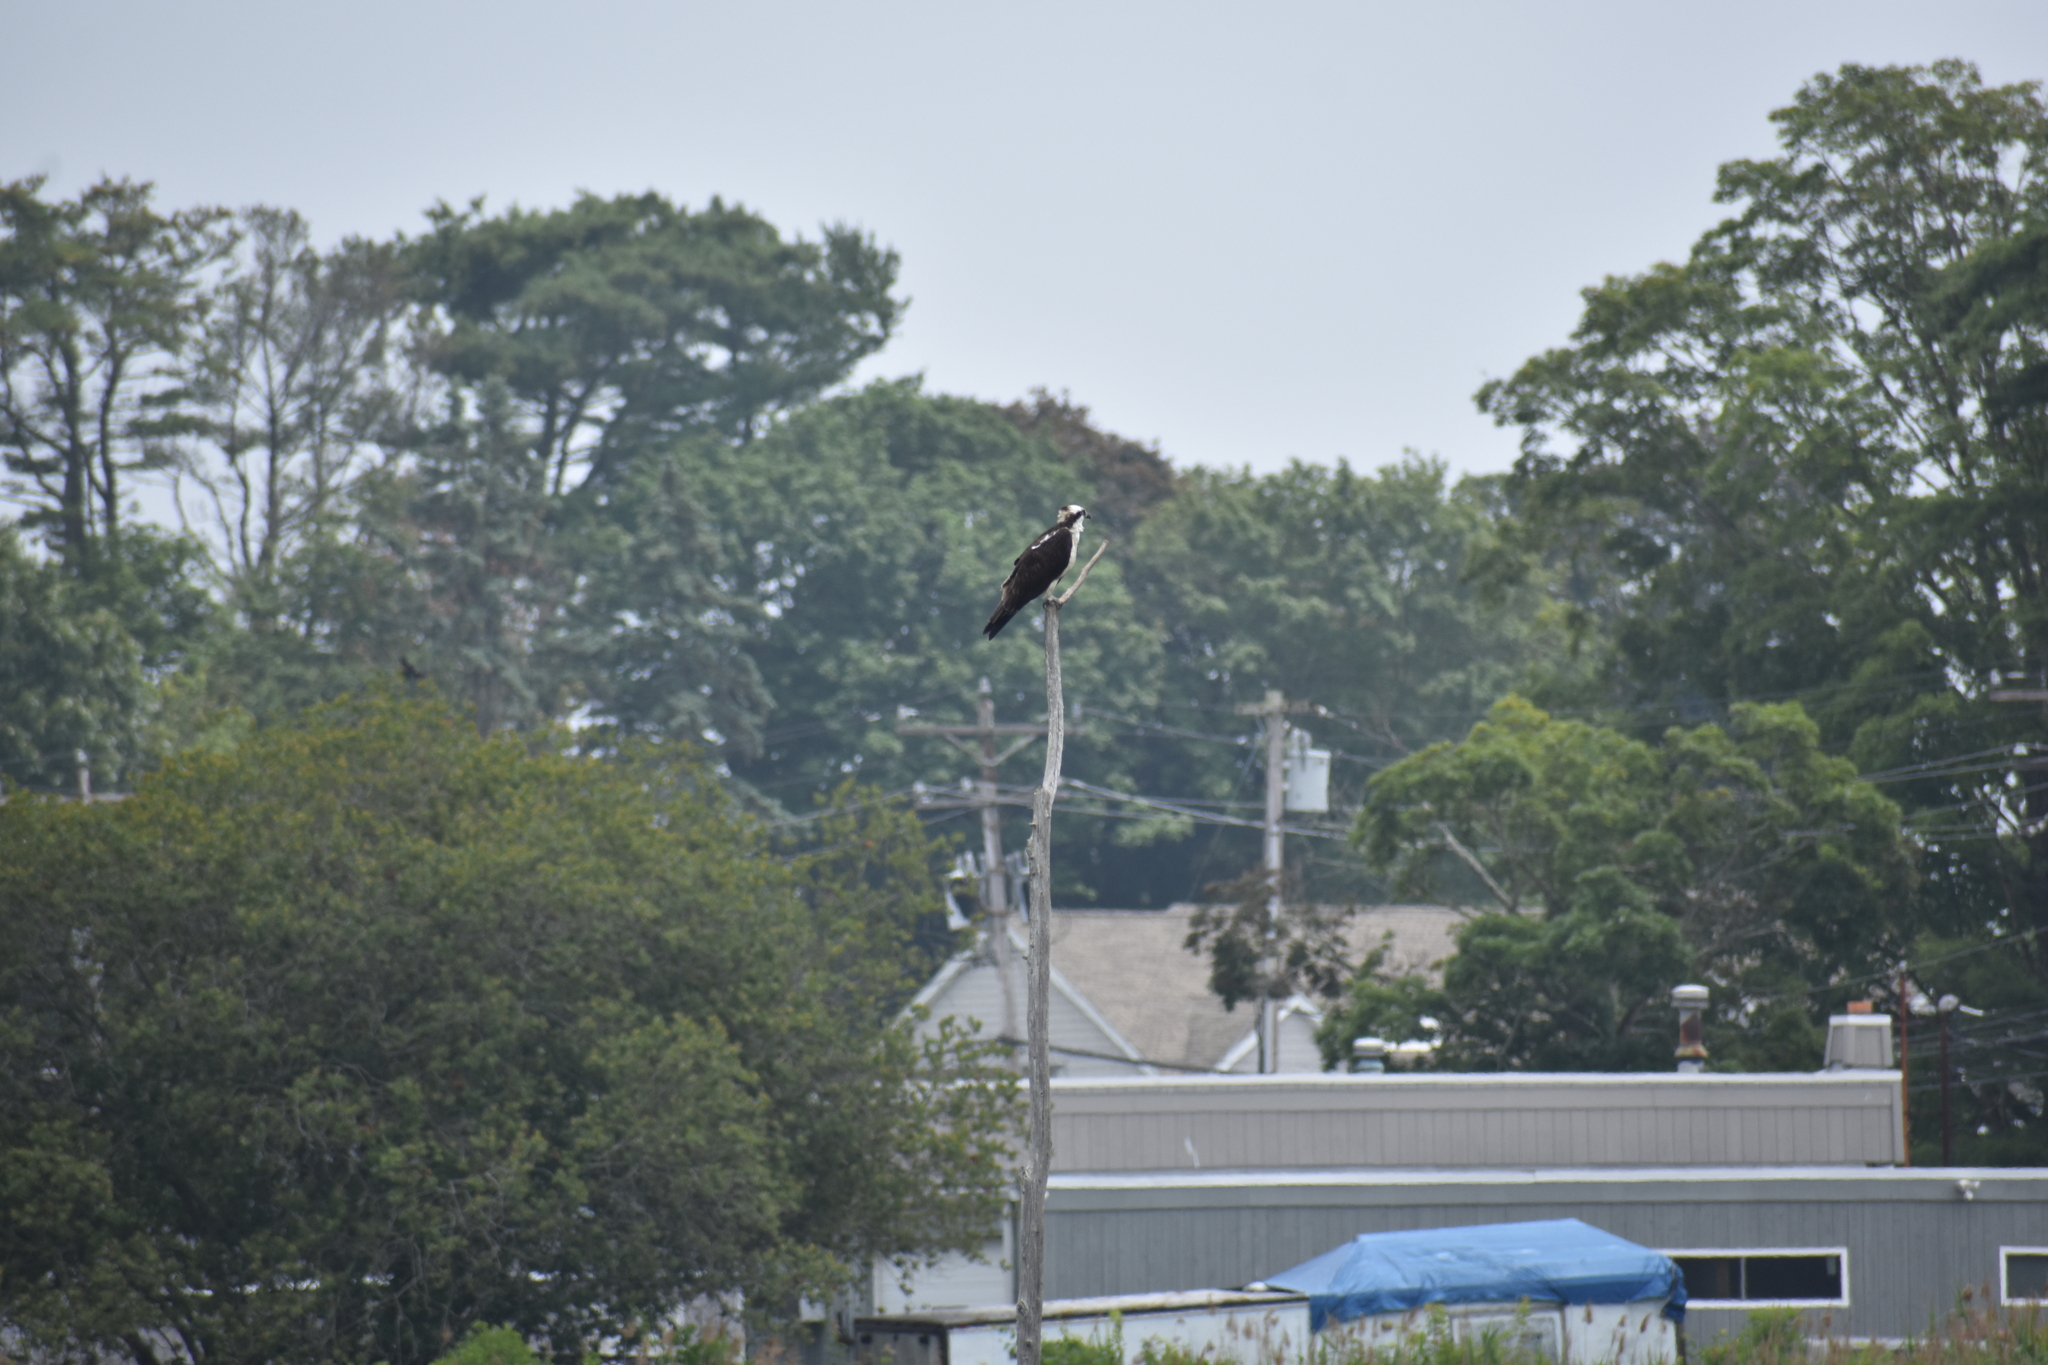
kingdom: Animalia
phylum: Chordata
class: Aves
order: Accipitriformes
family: Pandionidae
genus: Pandion
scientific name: Pandion haliaetus
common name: Osprey
